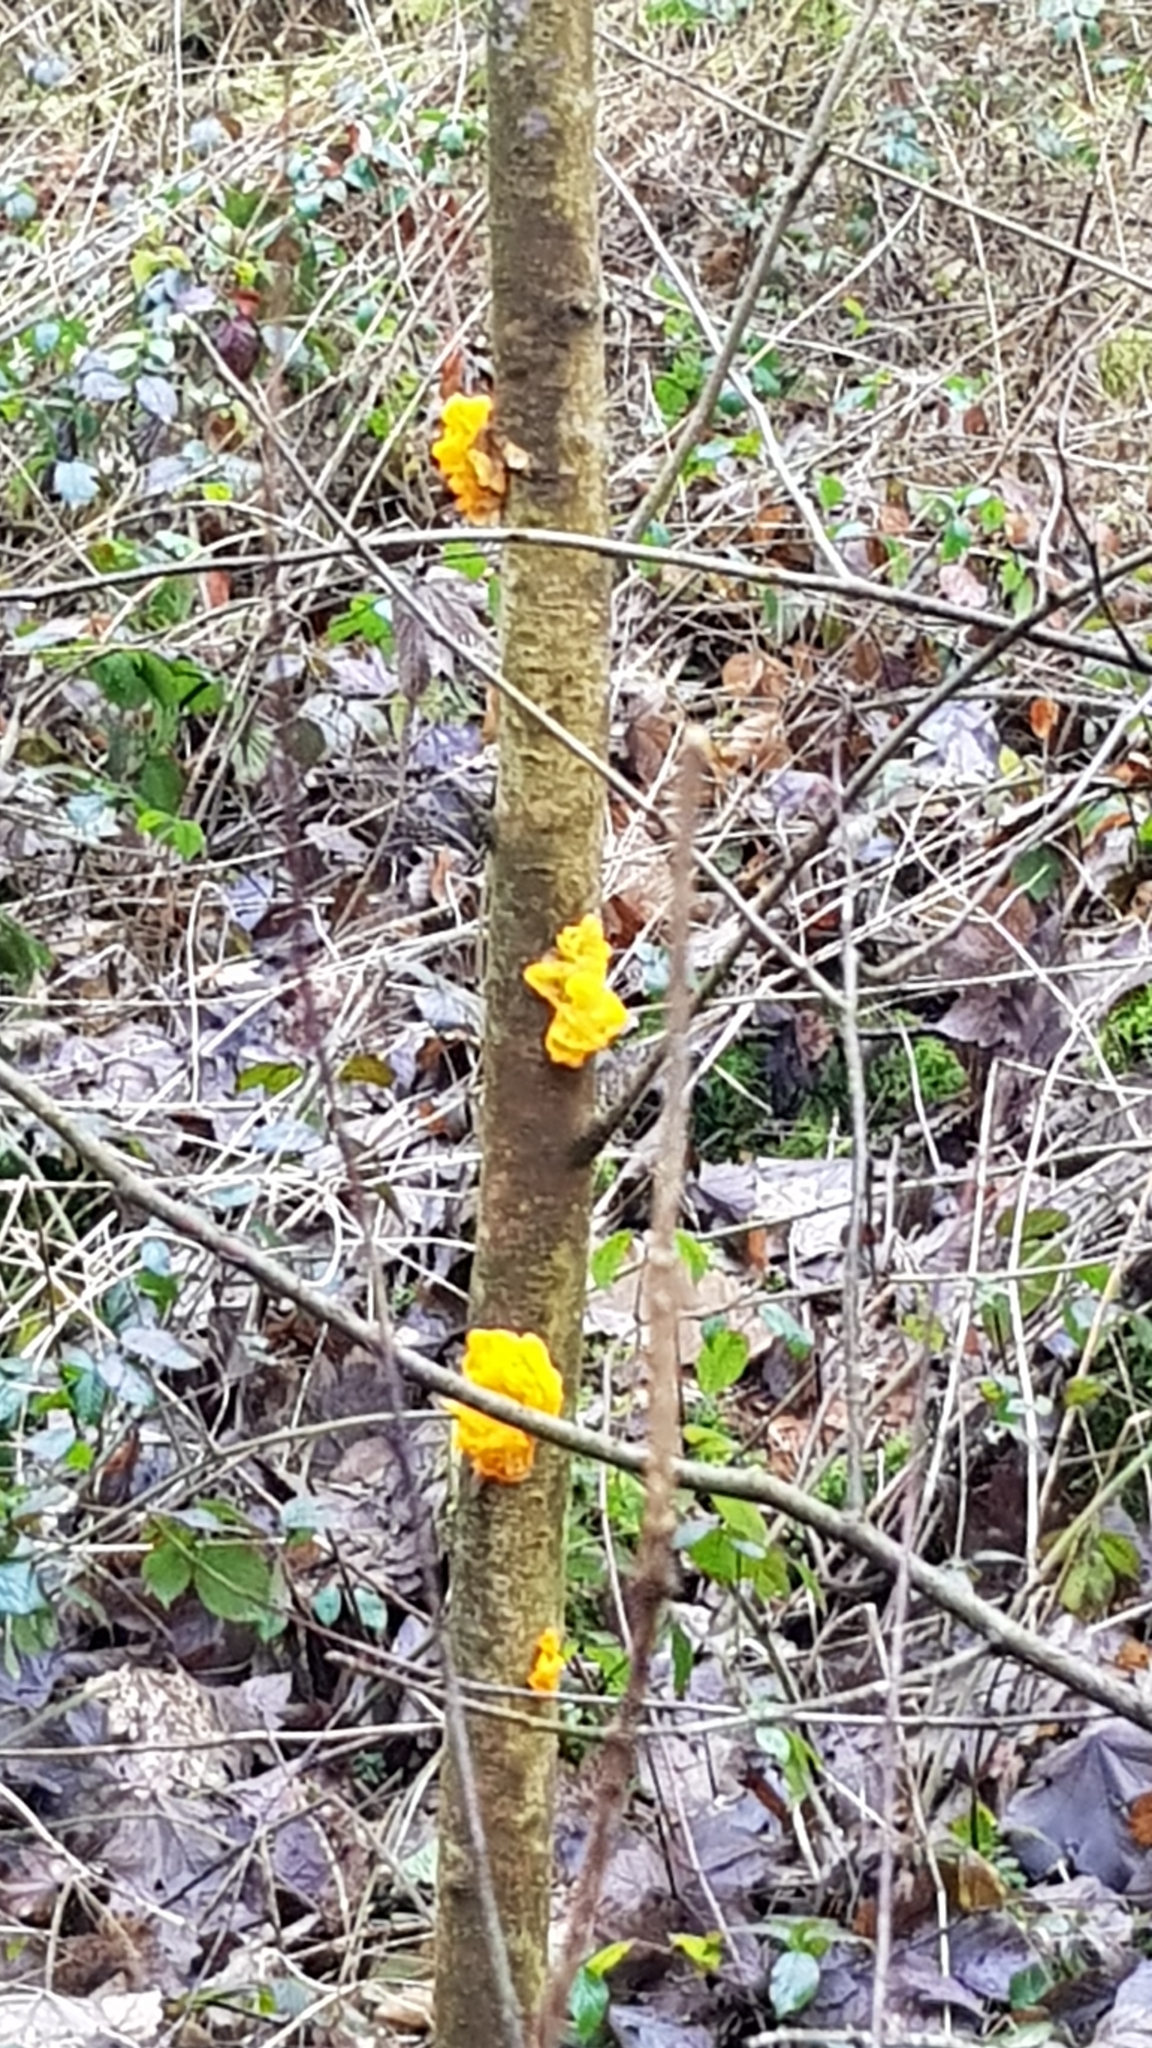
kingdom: Fungi
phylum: Basidiomycota
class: Tremellomycetes
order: Tremellales
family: Tremellaceae
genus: Tremella
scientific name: Tremella mesenterica
